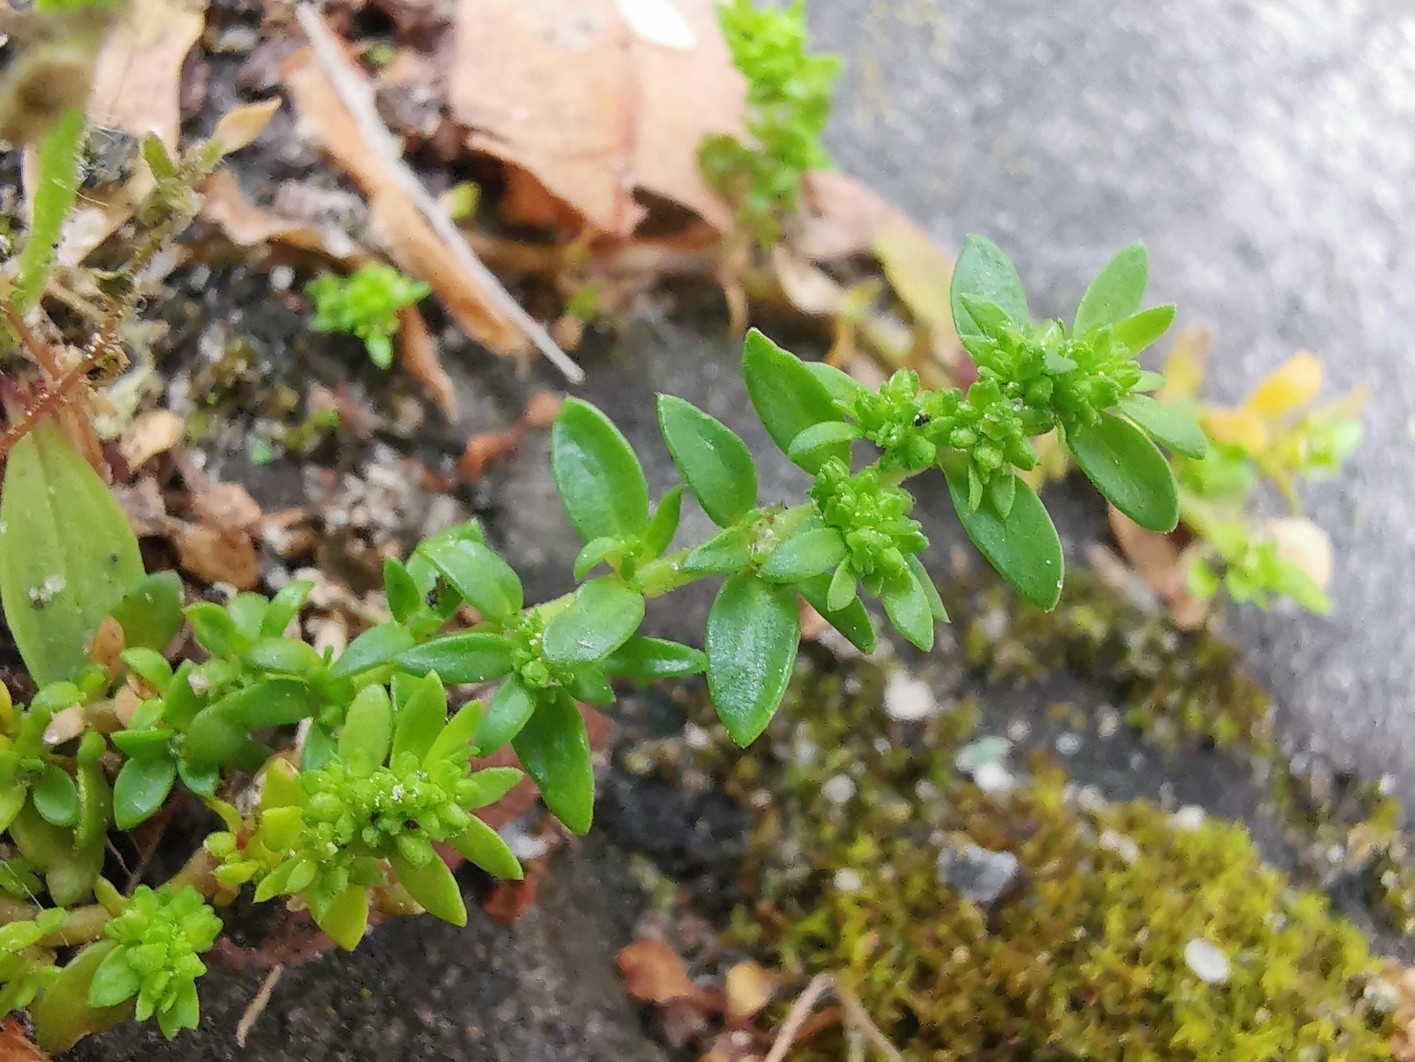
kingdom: Plantae
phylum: Tracheophyta
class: Magnoliopsida
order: Caryophyllales
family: Caryophyllaceae
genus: Herniaria
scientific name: Herniaria glabra
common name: Smooth rupturewort
